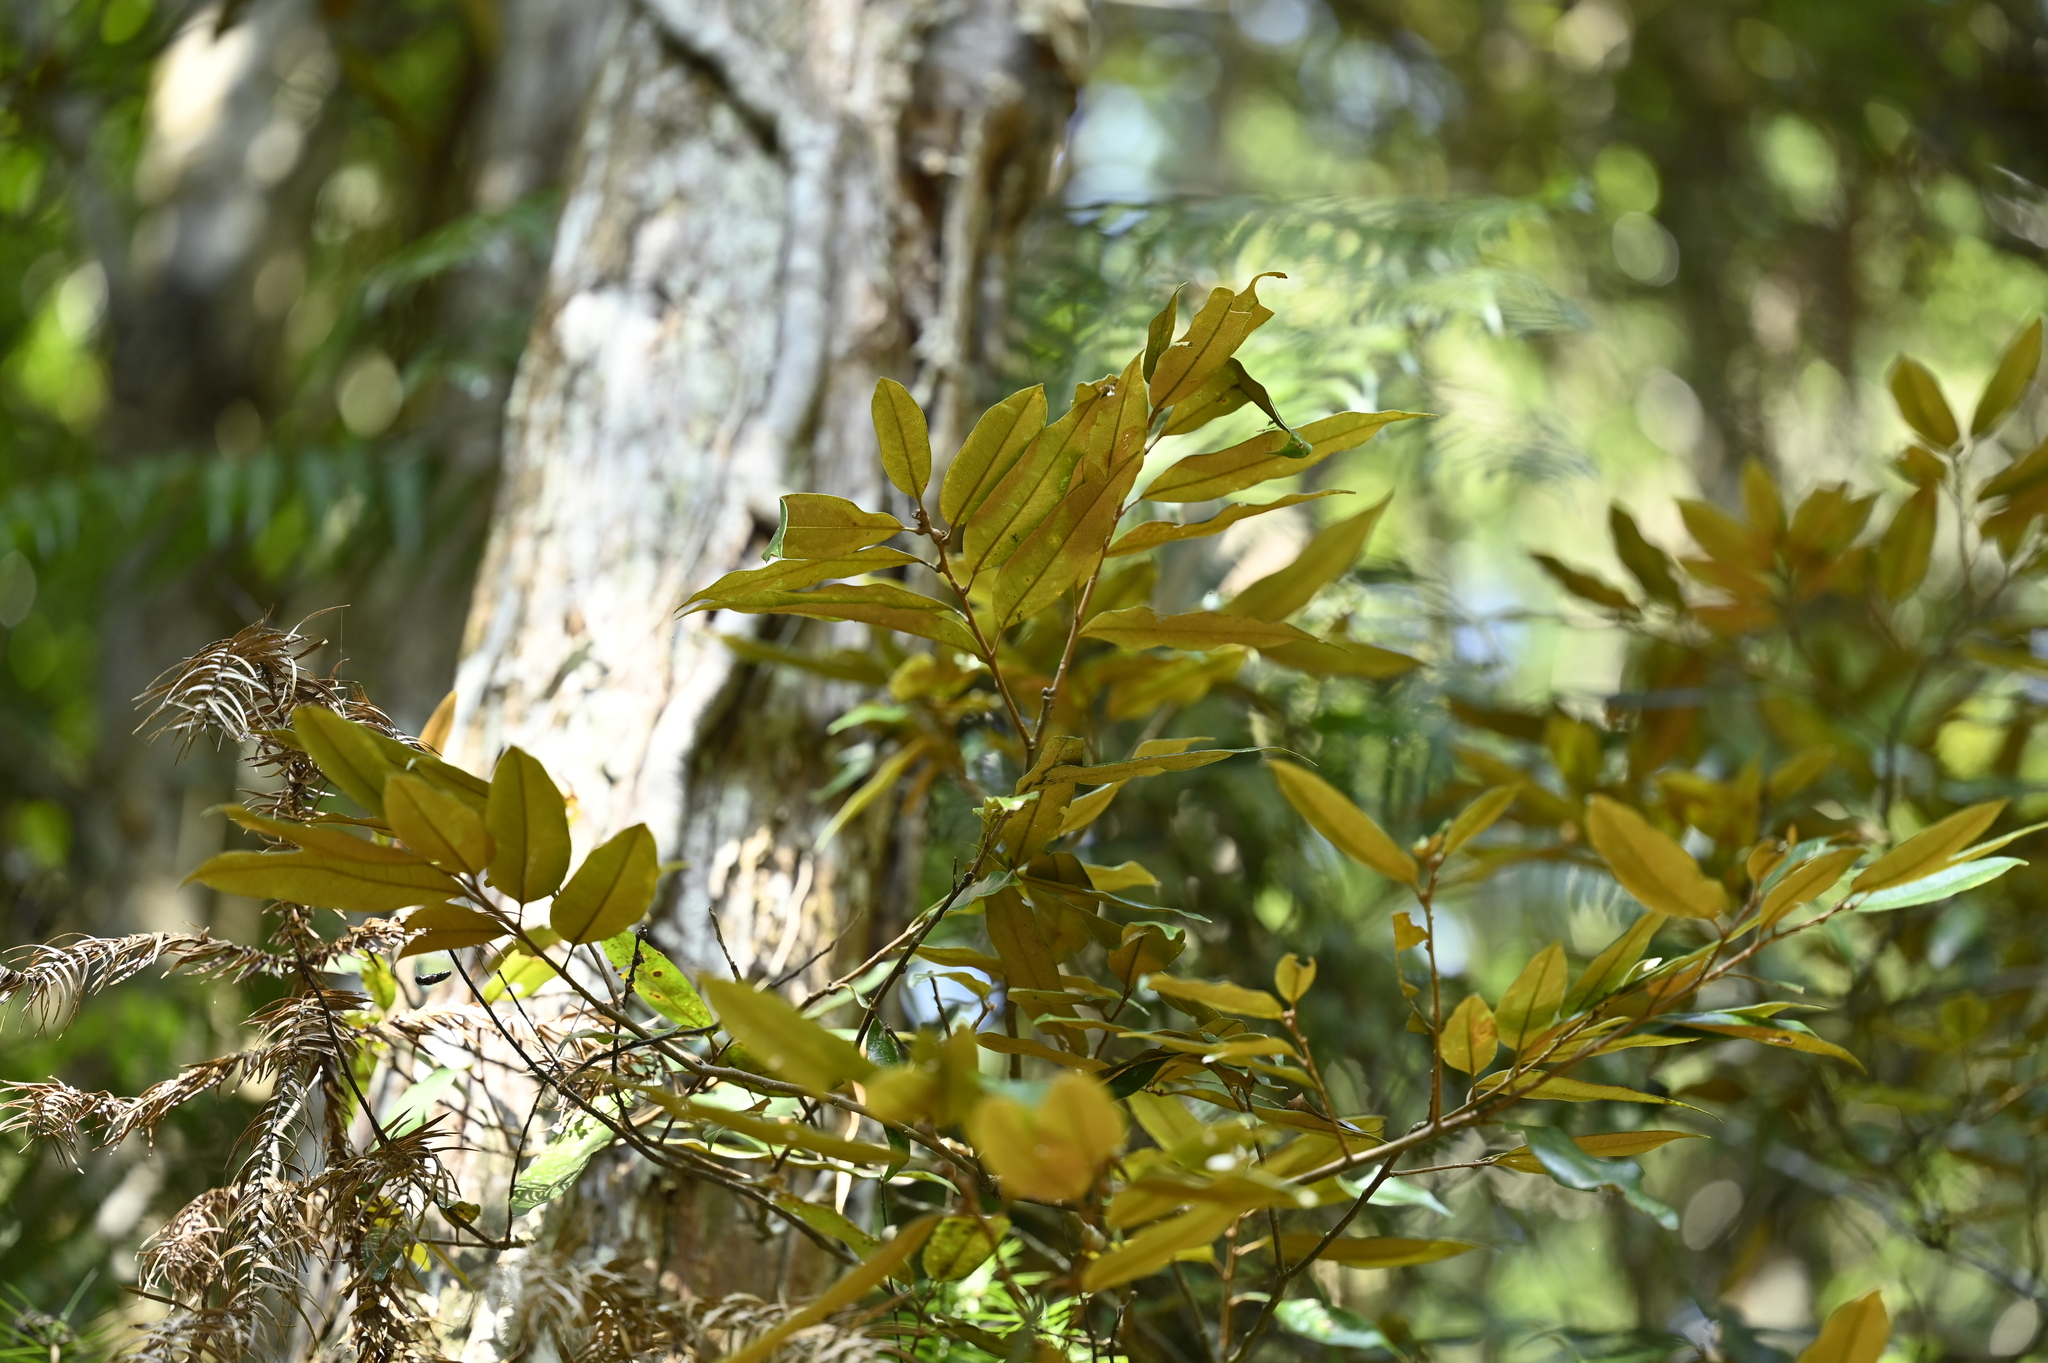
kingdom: Plantae
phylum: Tracheophyta
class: Magnoliopsida
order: Fagales
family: Fagaceae
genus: Castanopsis
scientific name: Castanopsis fargesii
